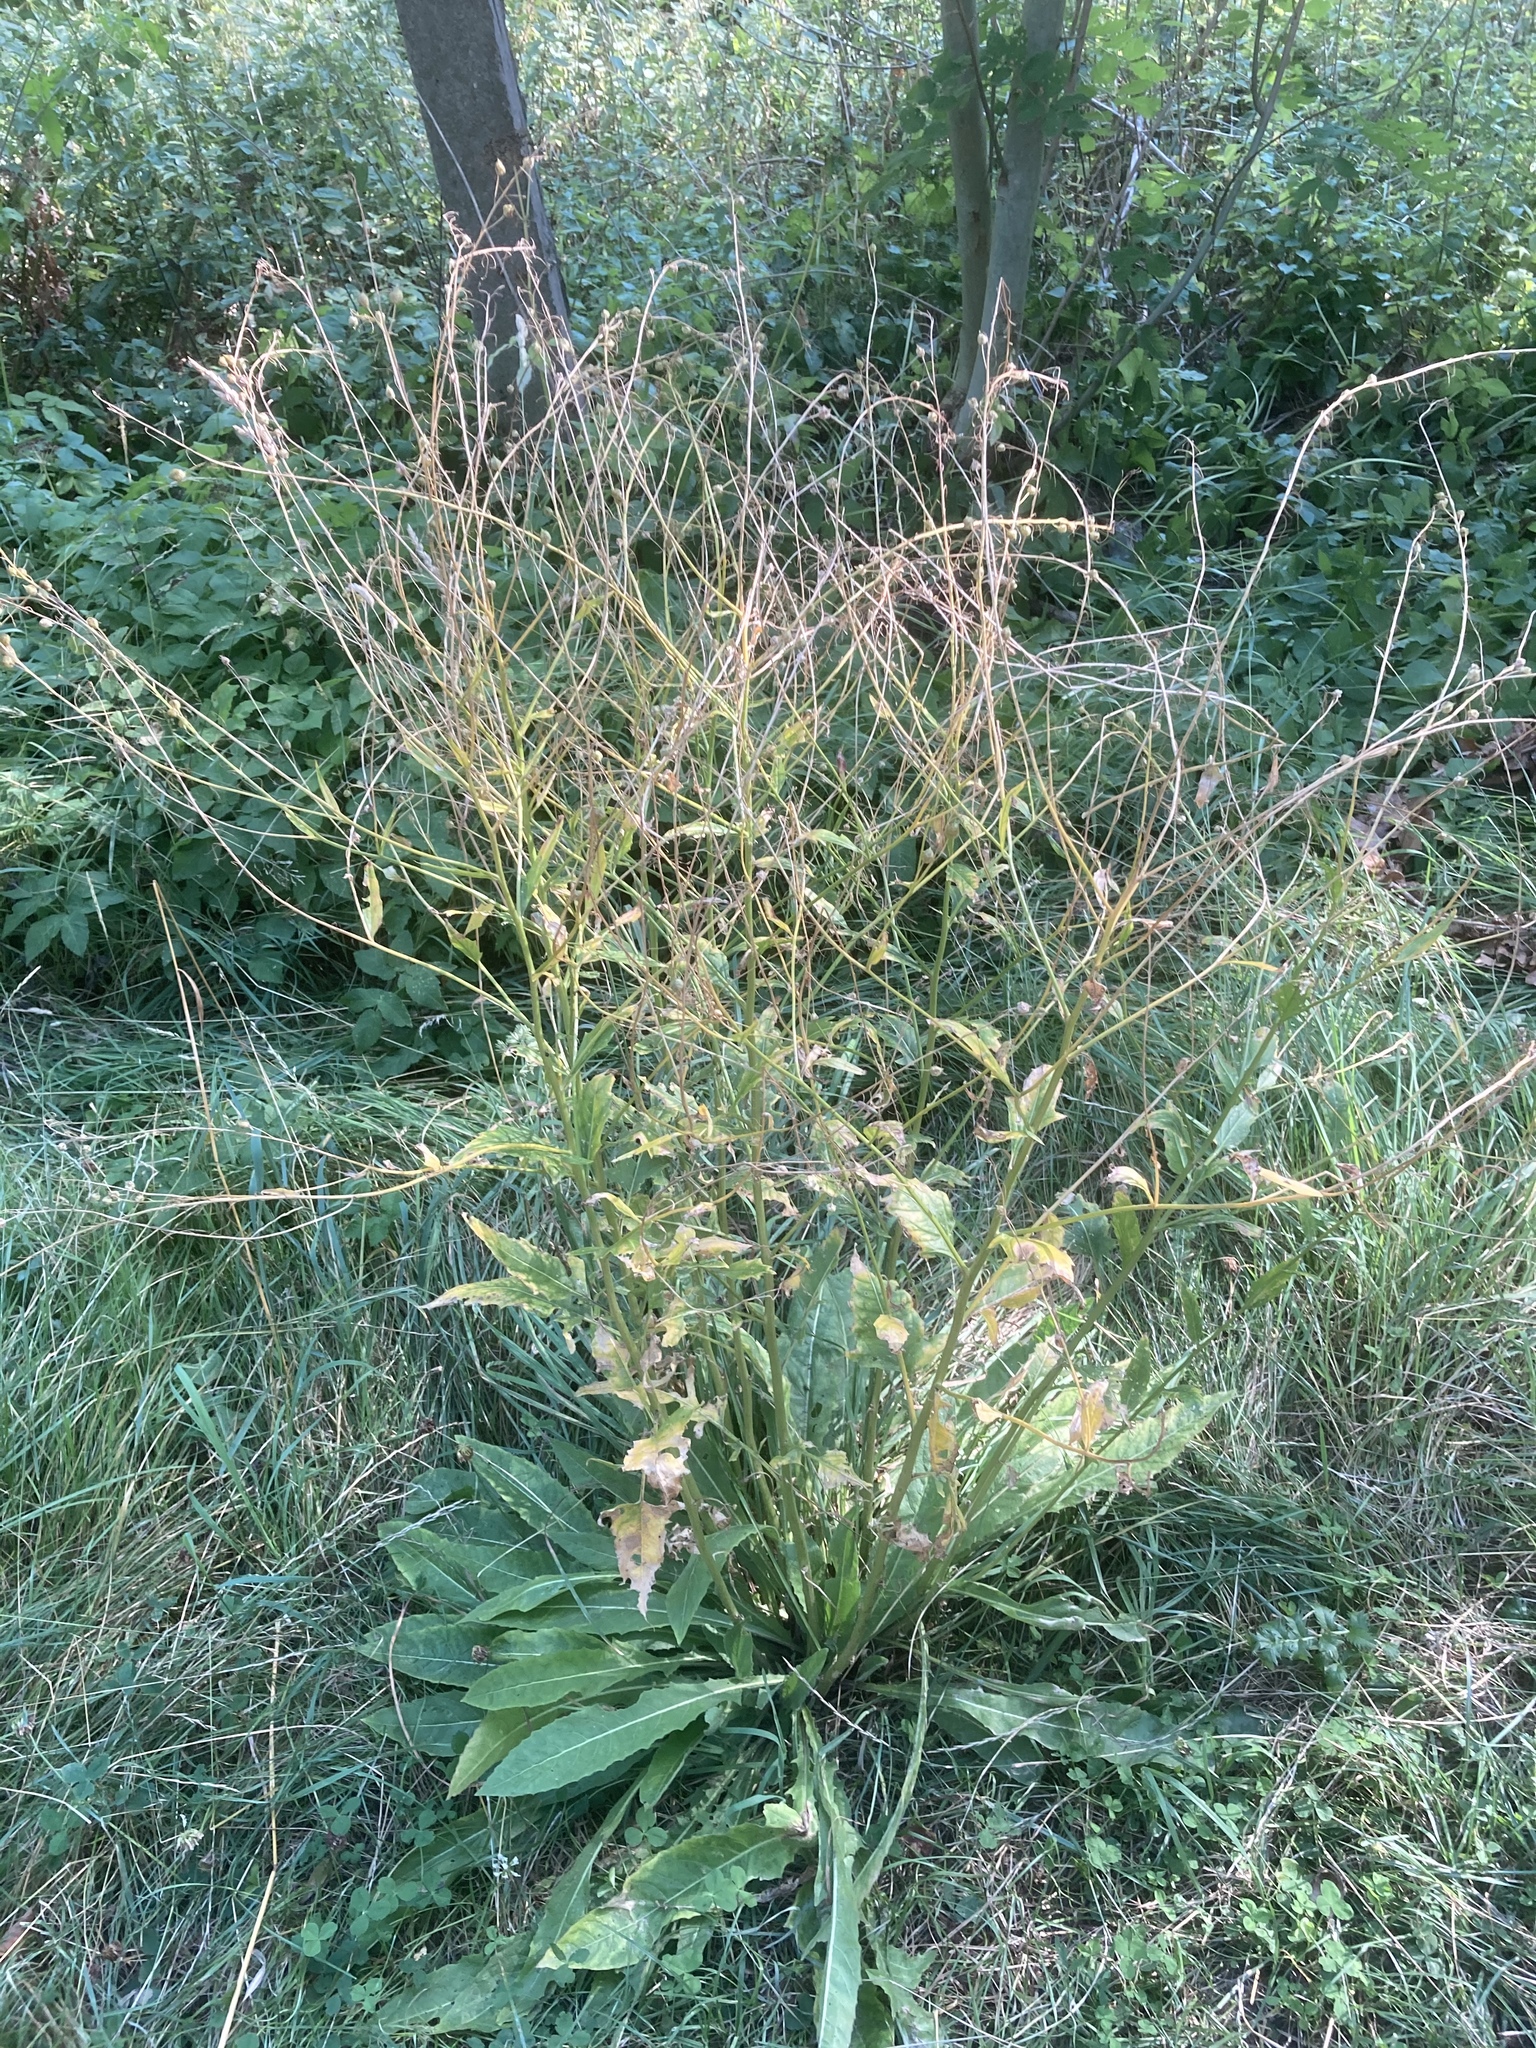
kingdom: Plantae
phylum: Tracheophyta
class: Magnoliopsida
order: Brassicales
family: Brassicaceae
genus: Bunias
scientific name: Bunias orientalis
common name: Warty-cabbage
